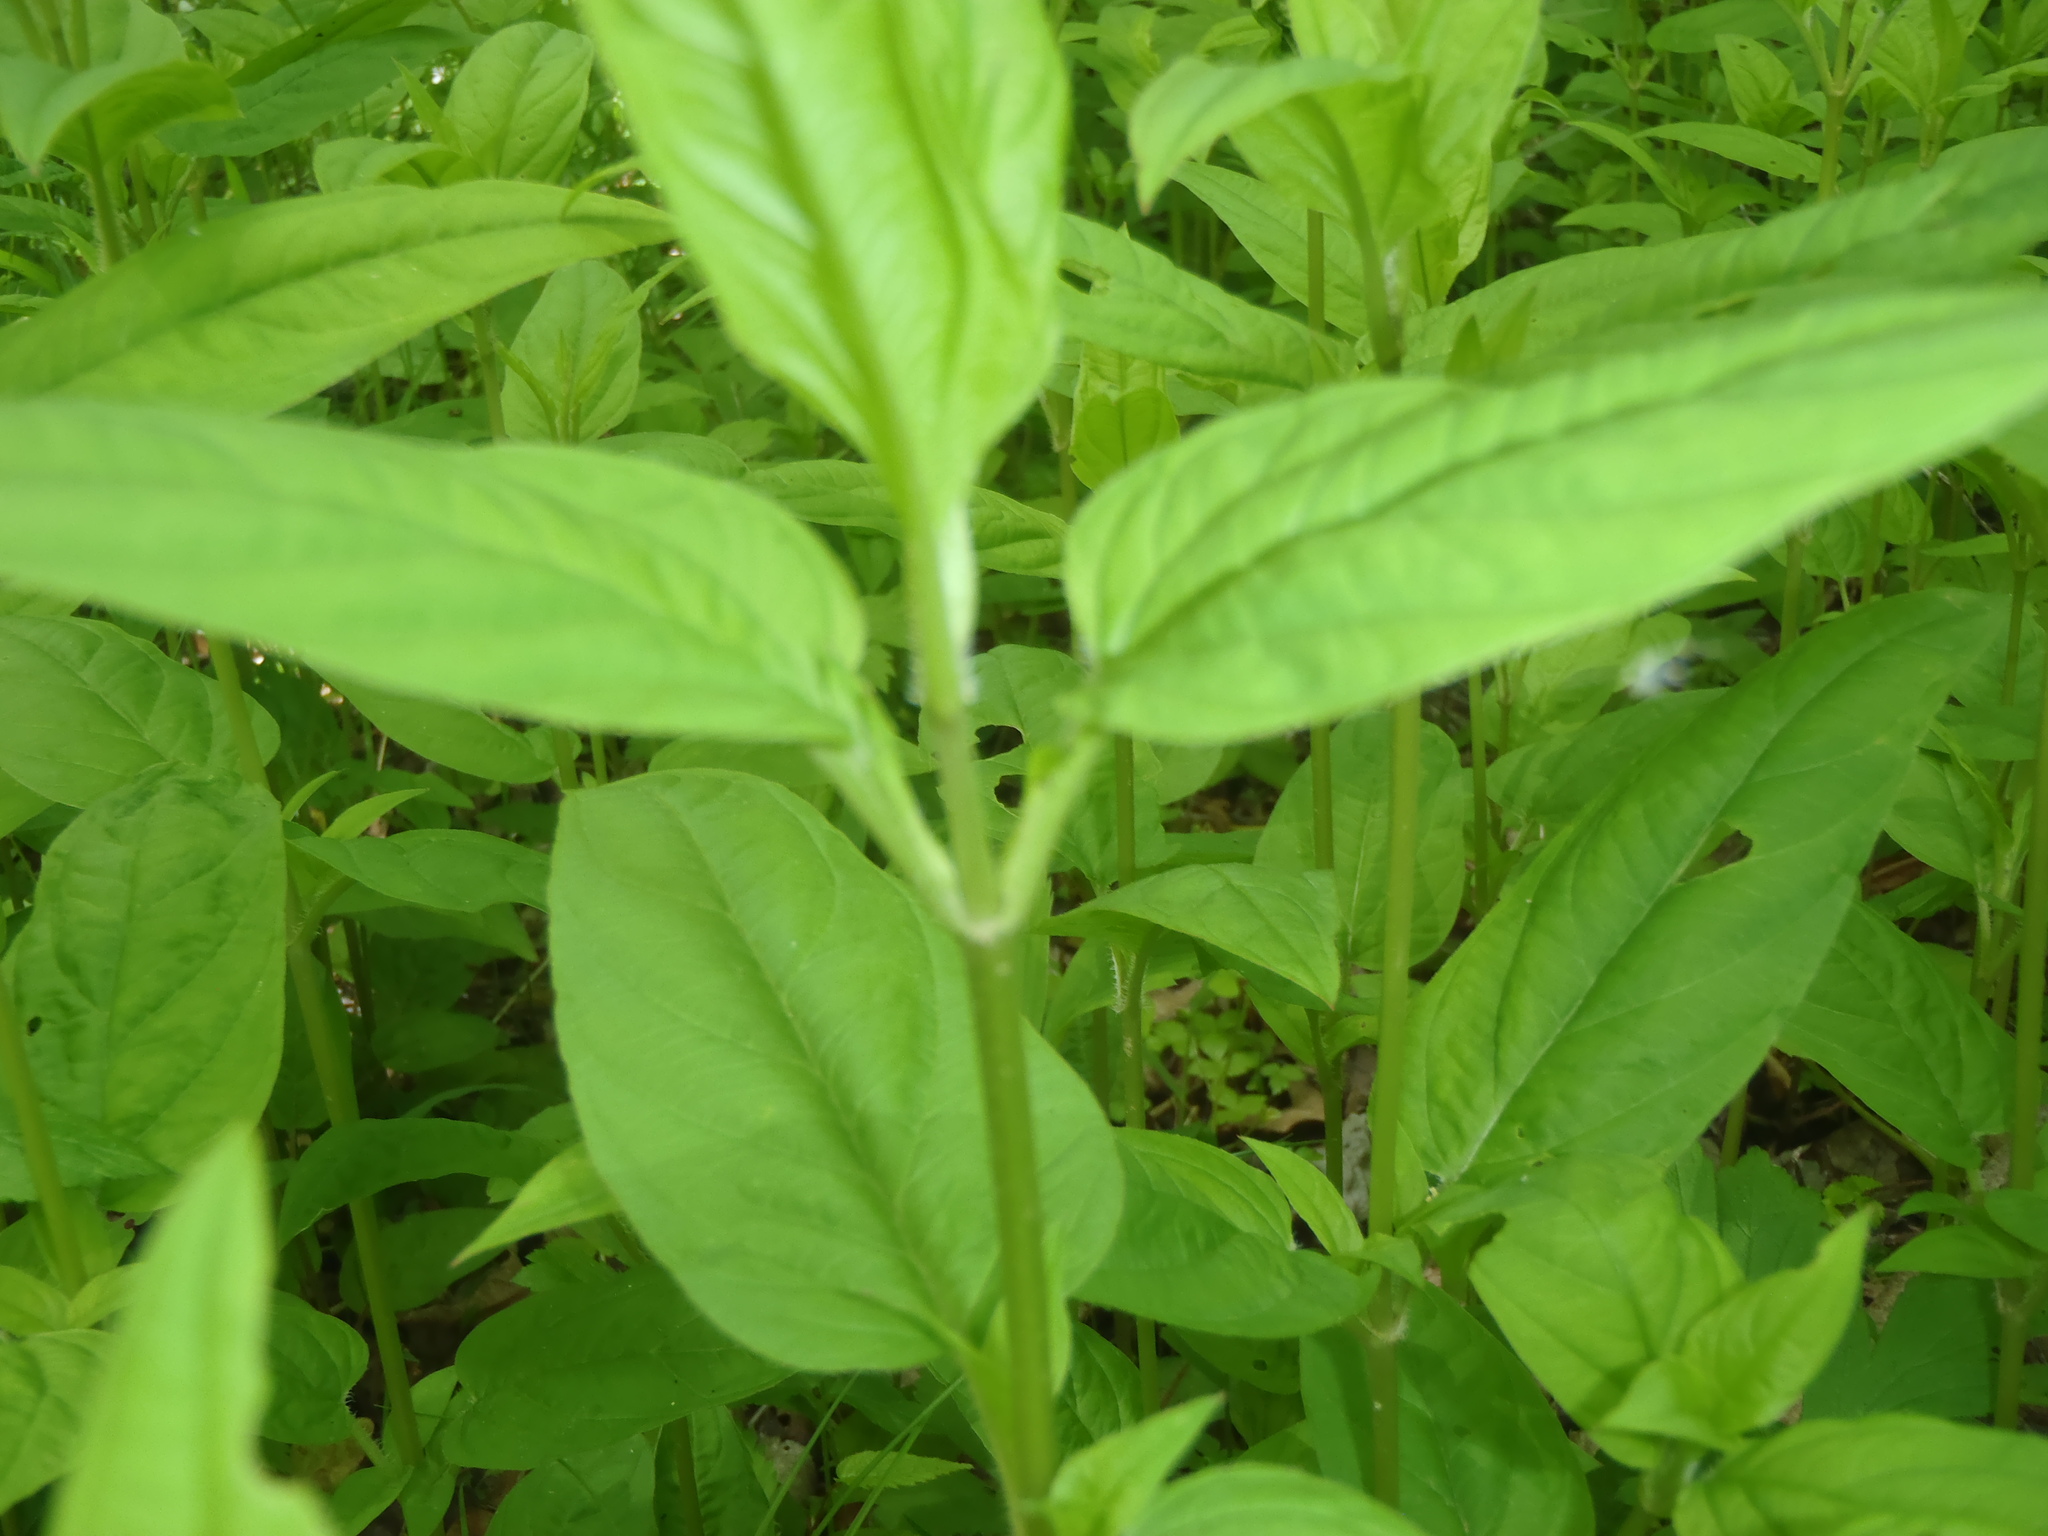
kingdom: Plantae
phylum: Tracheophyta
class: Magnoliopsida
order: Ericales
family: Primulaceae
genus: Lysimachia
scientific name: Lysimachia ciliata
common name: Fringed loosestrife
